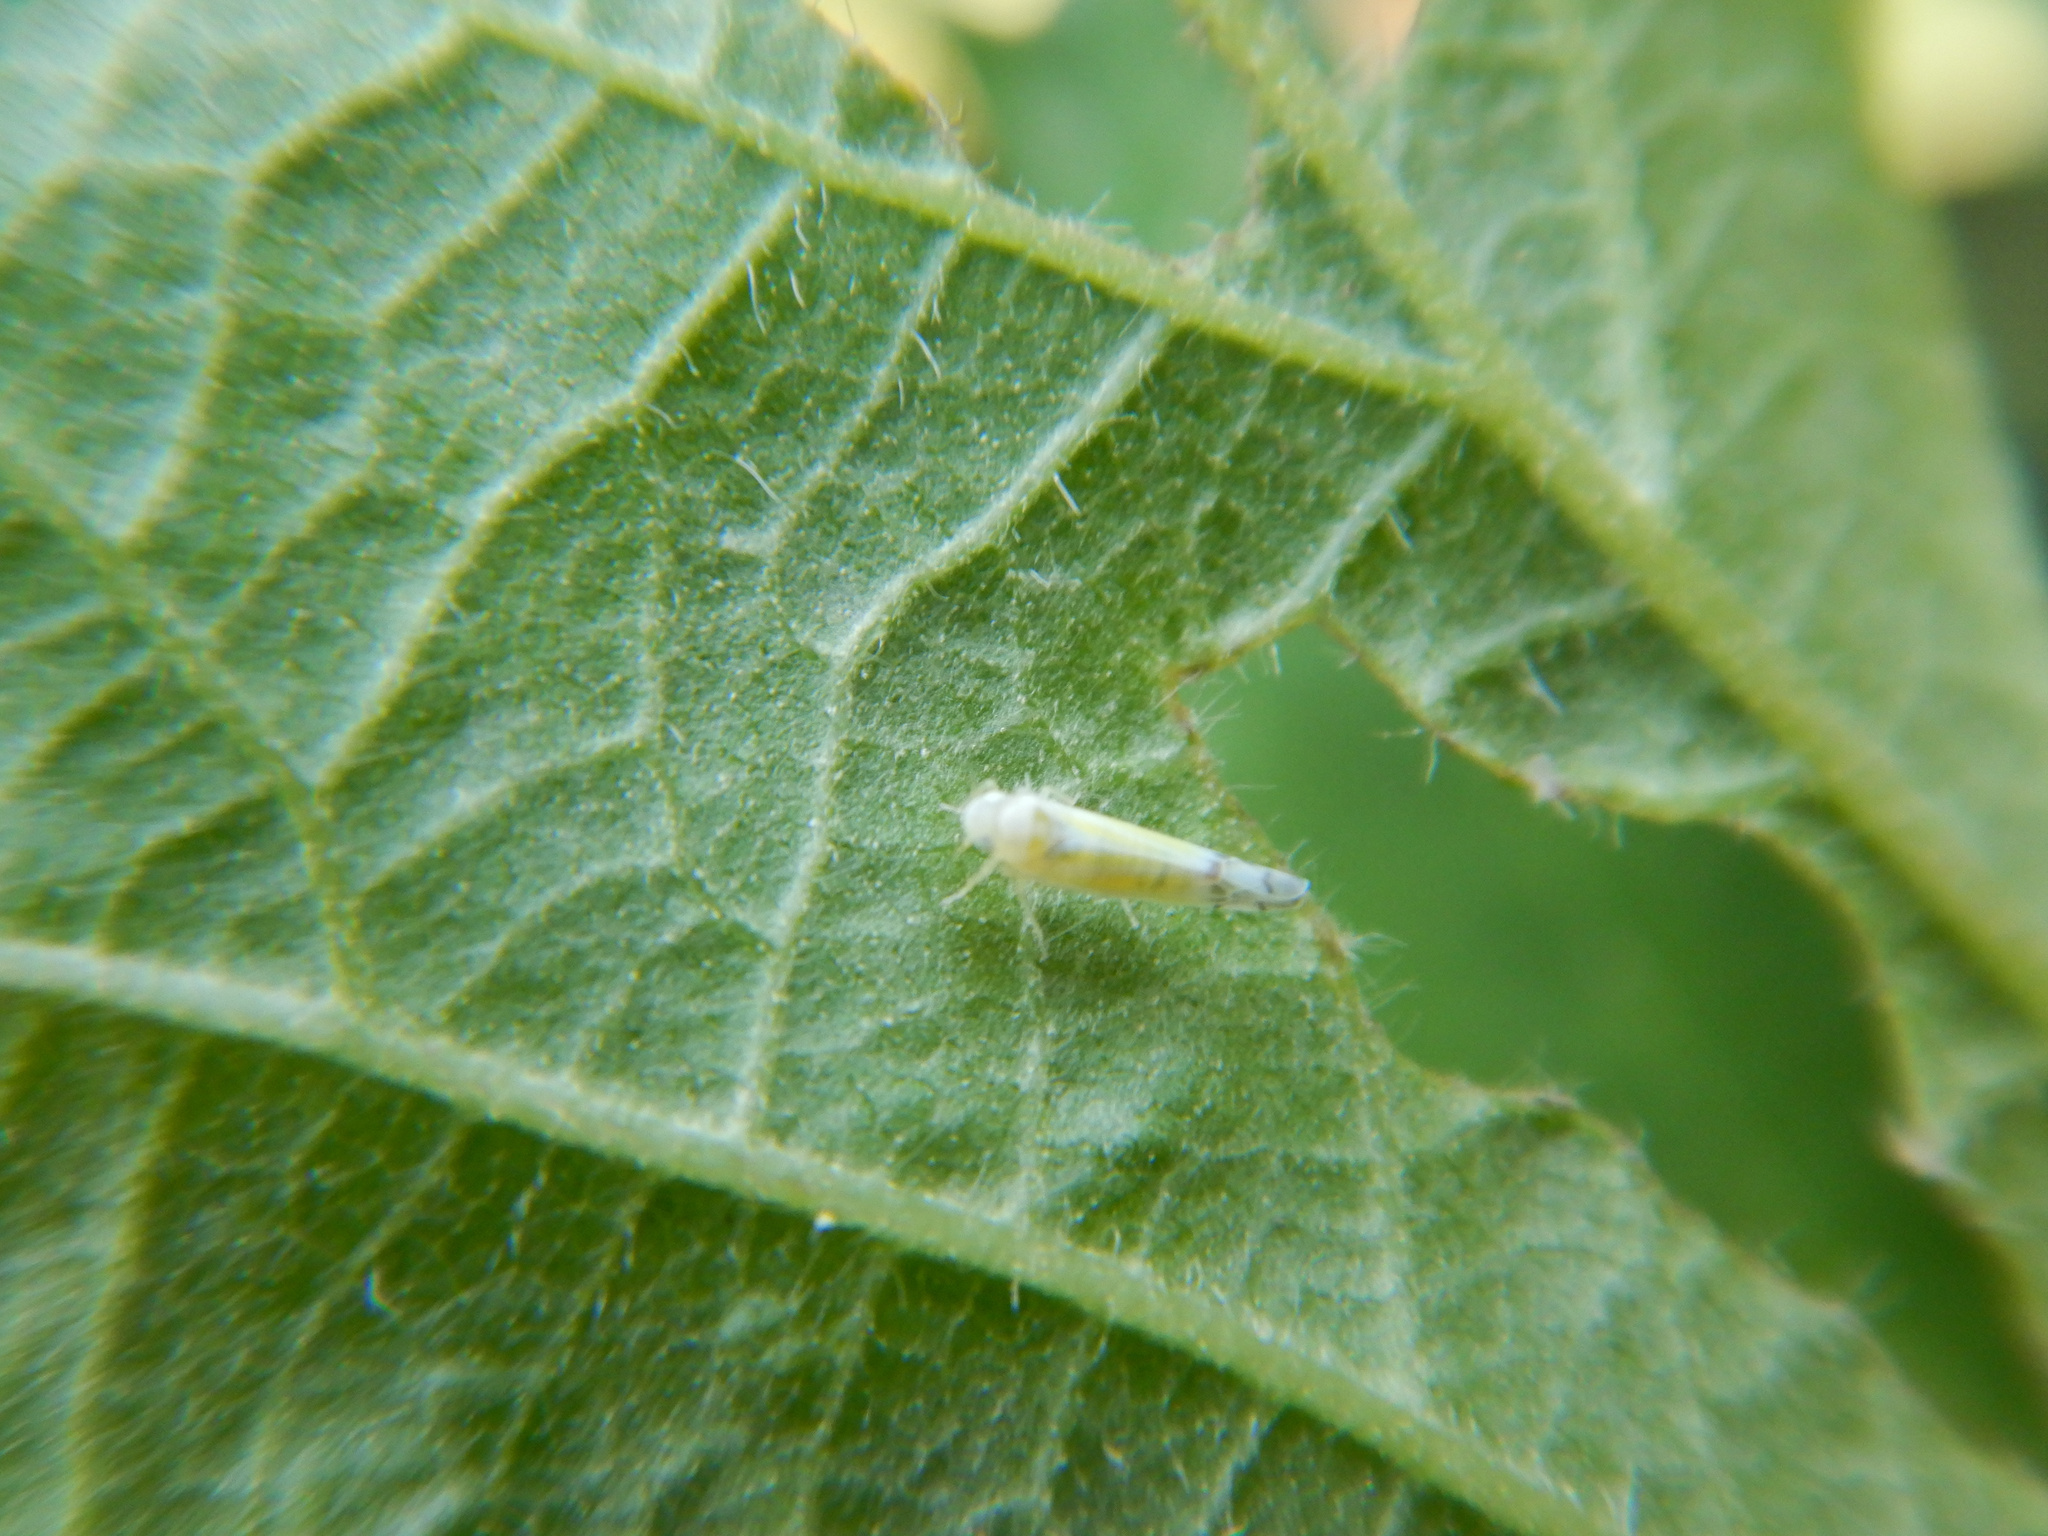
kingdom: Animalia
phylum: Arthropoda
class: Insecta
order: Hemiptera
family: Cicadellidae
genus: Ribautiana
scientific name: Ribautiana tenerrima
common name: Bramble leafhopper
